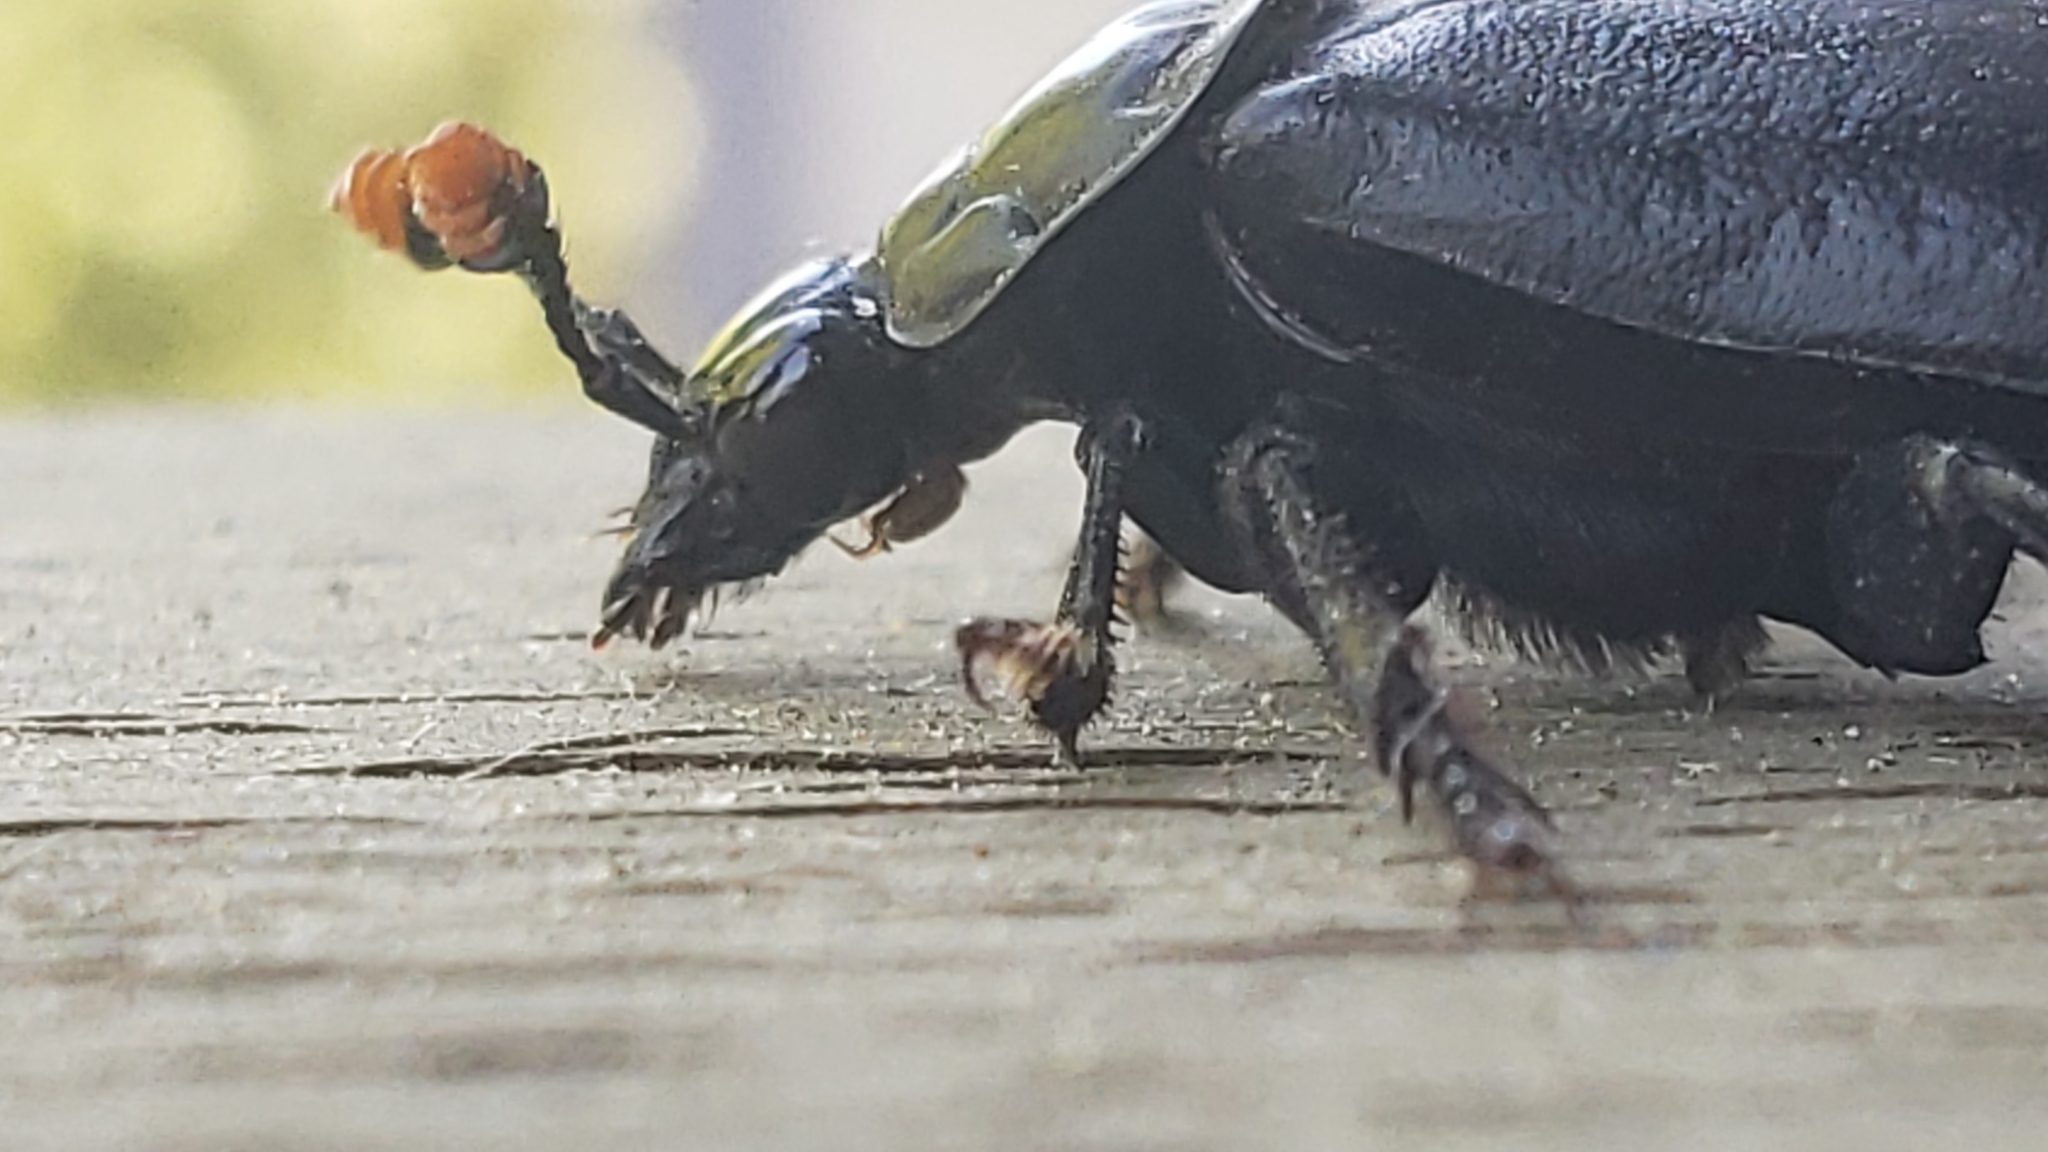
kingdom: Animalia
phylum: Arthropoda
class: Insecta
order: Coleoptera
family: Staphylinidae
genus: Nicrophorus
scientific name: Nicrophorus nigrita
